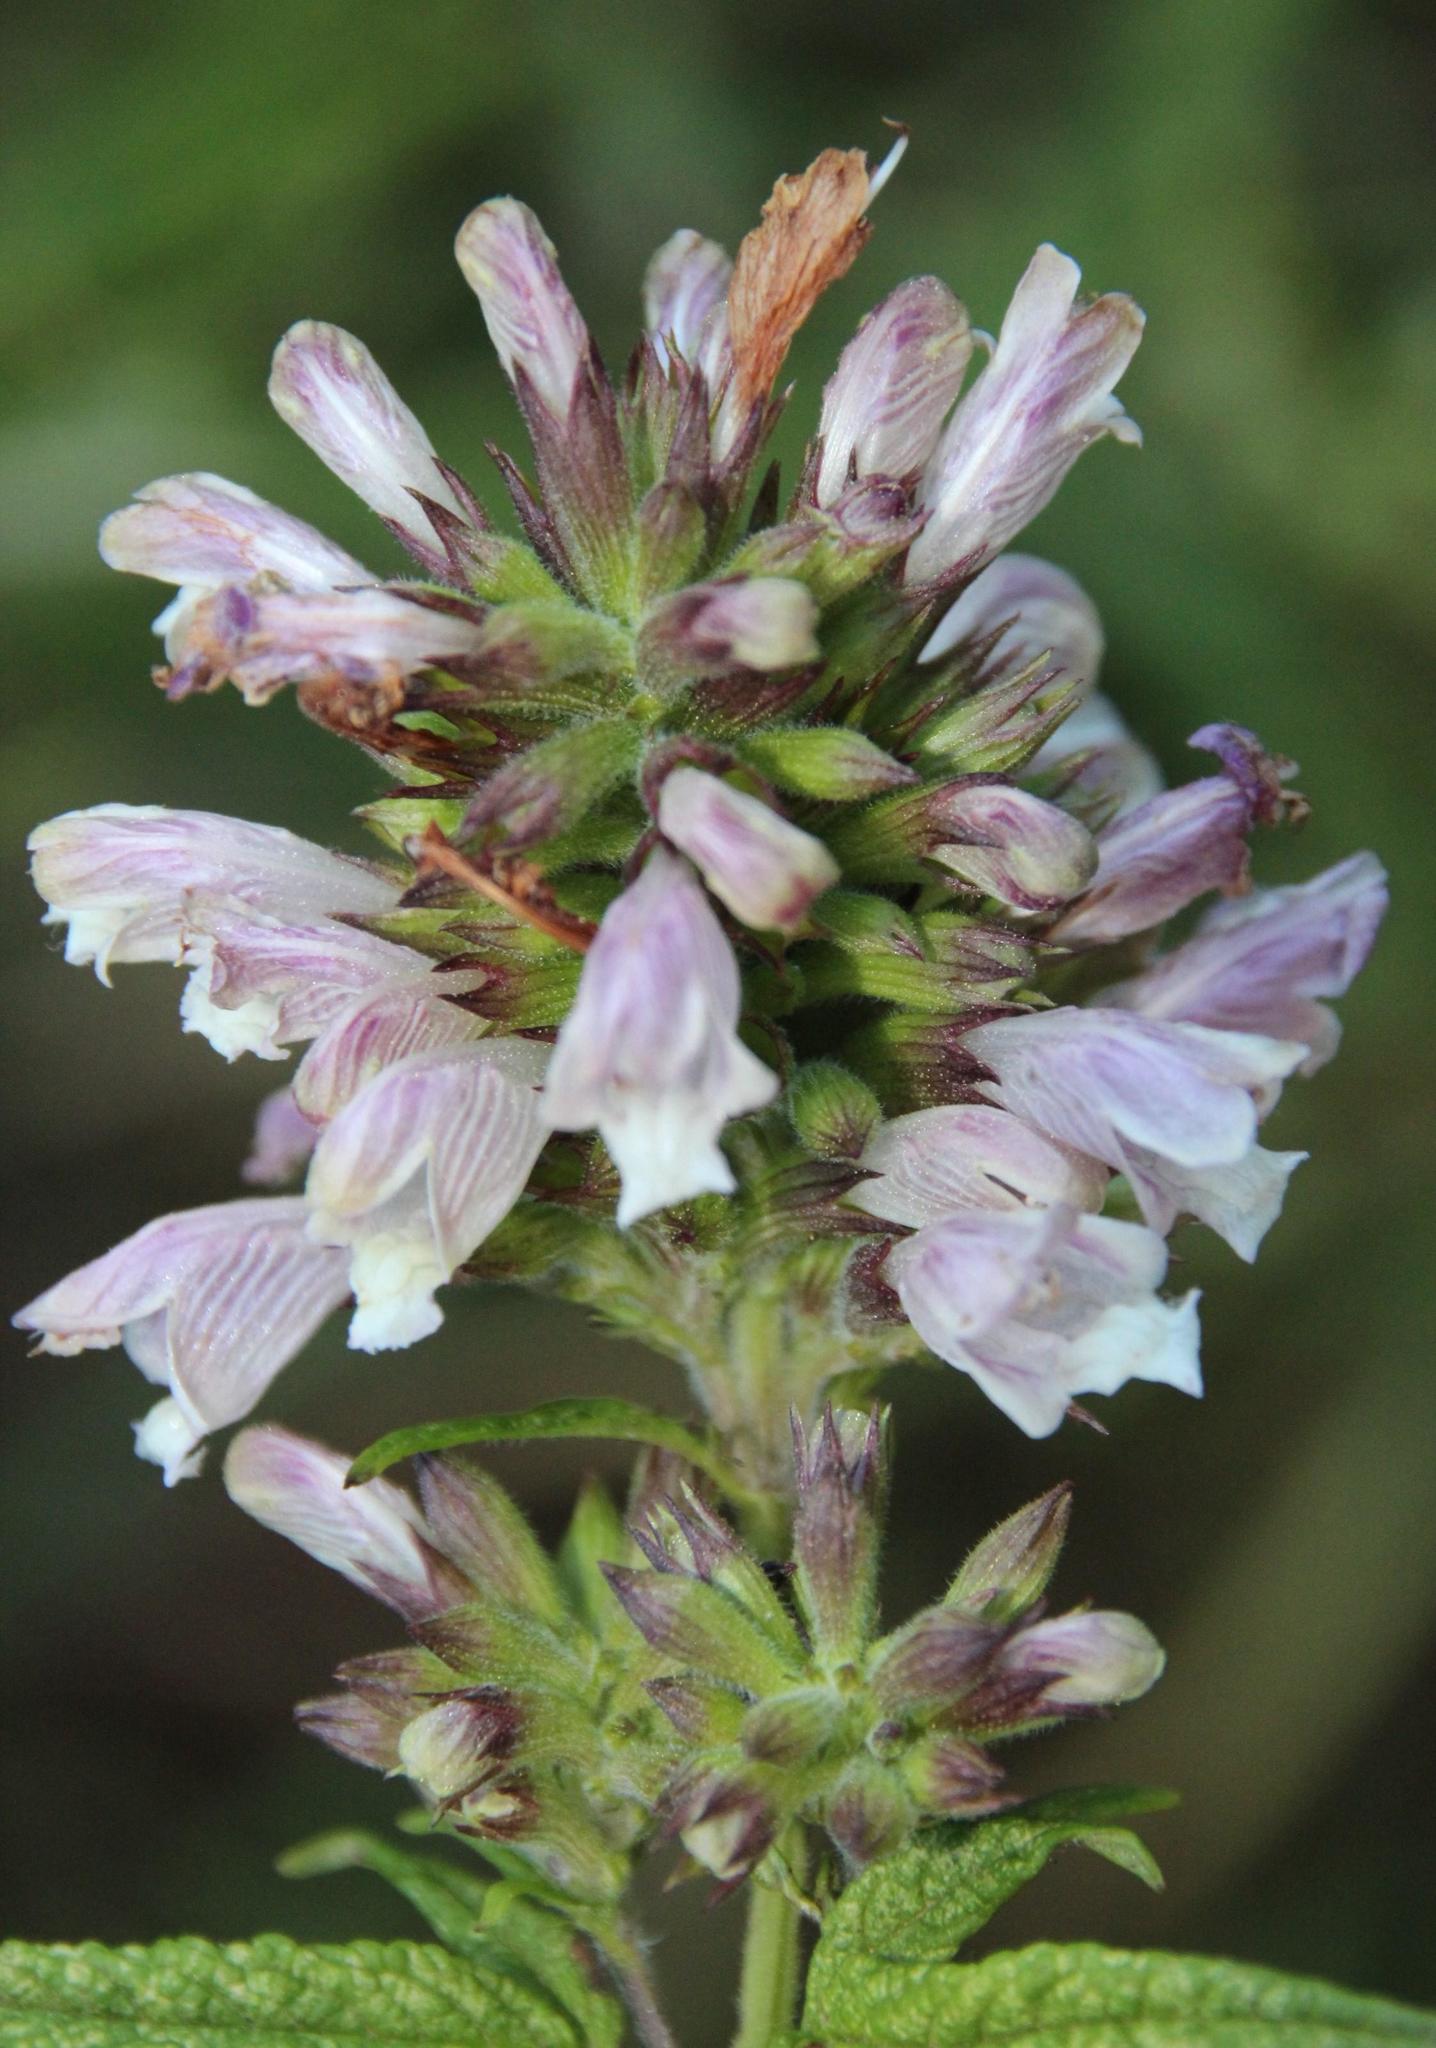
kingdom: Plantae
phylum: Tracheophyta
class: Magnoliopsida
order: Lamiales
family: Lamiaceae
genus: Cedronella
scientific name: Cedronella canariensis
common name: Canary islands balm
